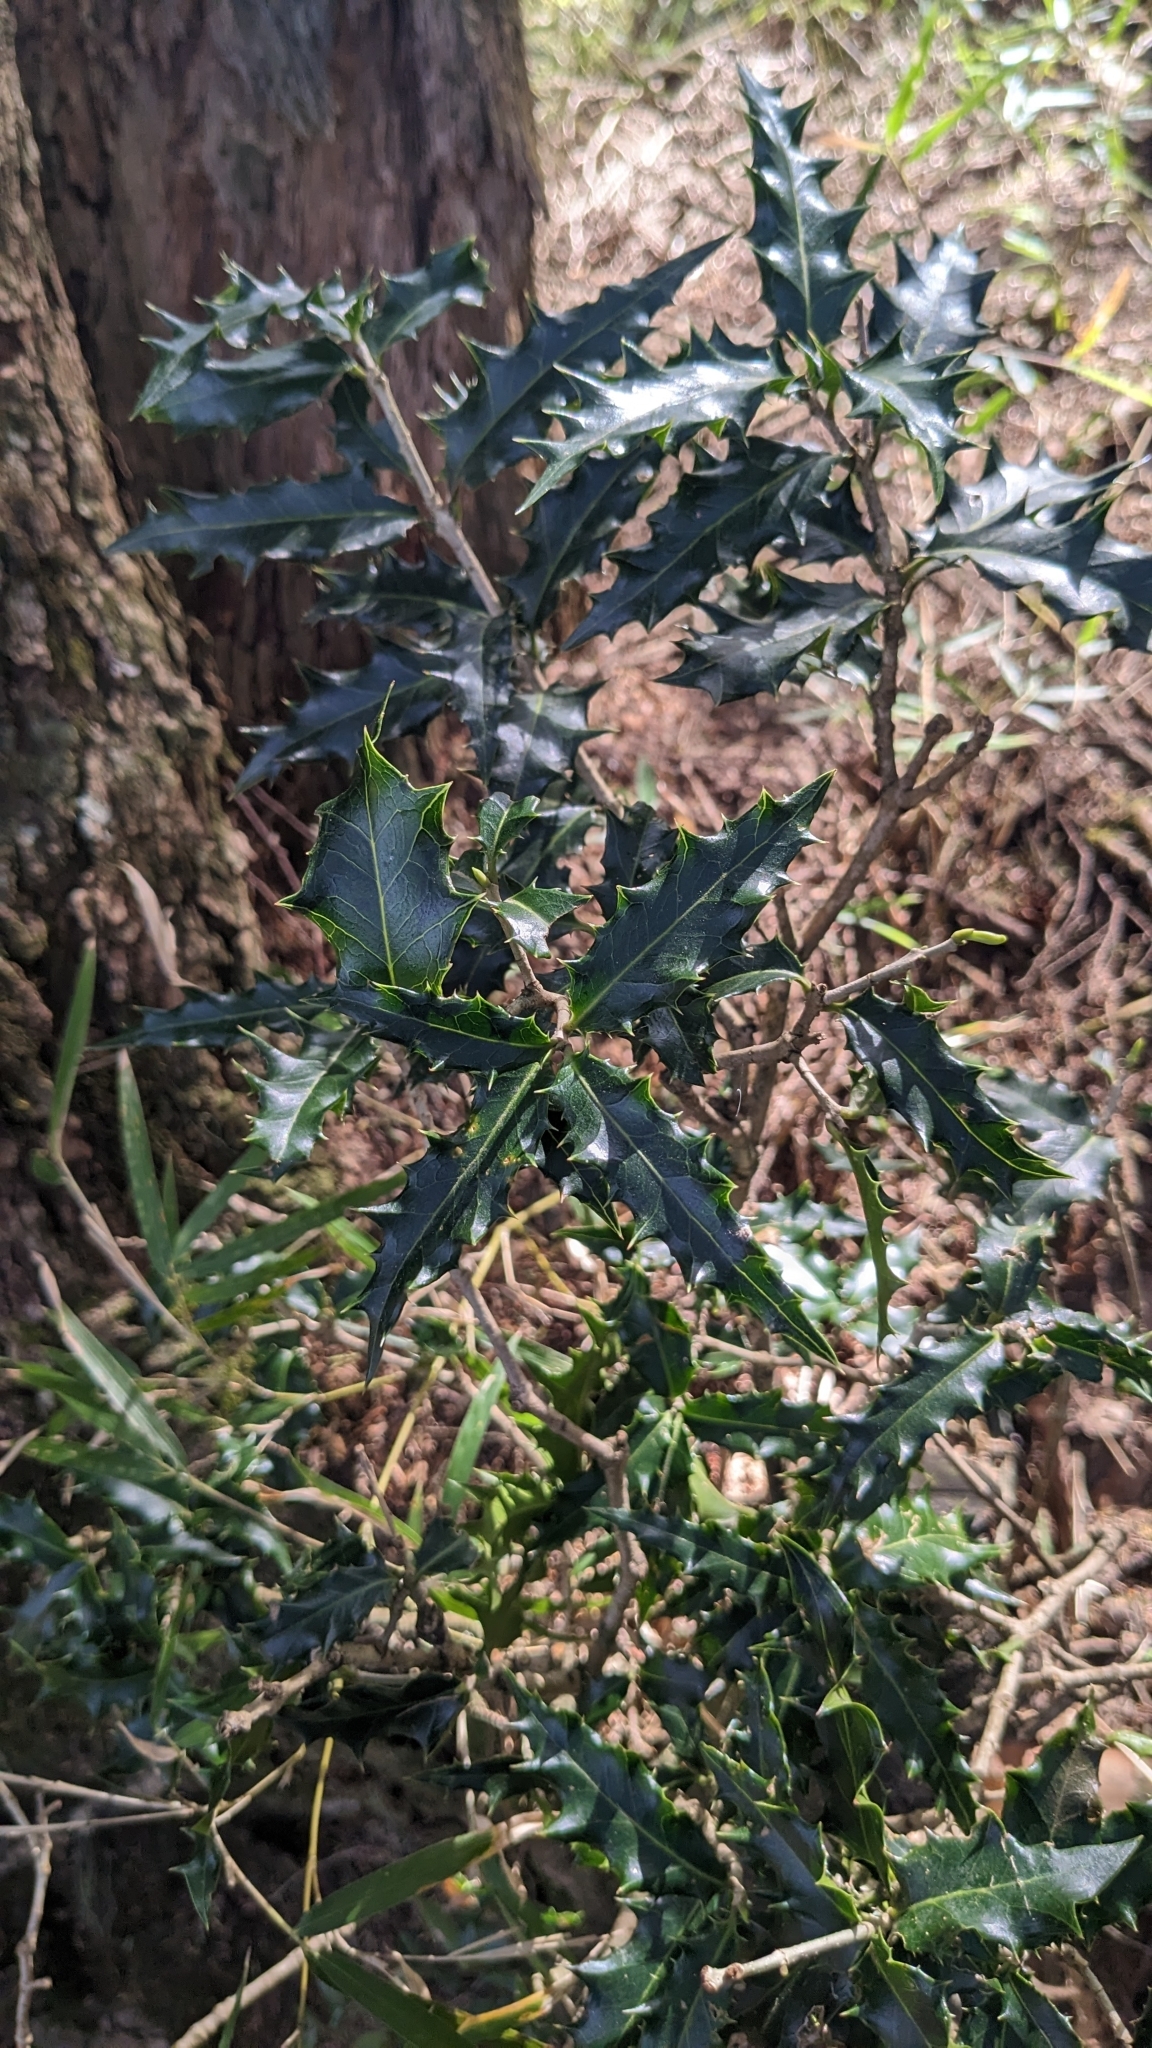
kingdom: Plantae
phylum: Tracheophyta
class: Magnoliopsida
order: Lamiales
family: Oleaceae
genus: Osmanthus
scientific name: Osmanthus heterophyllus
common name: Holly osmanthus
